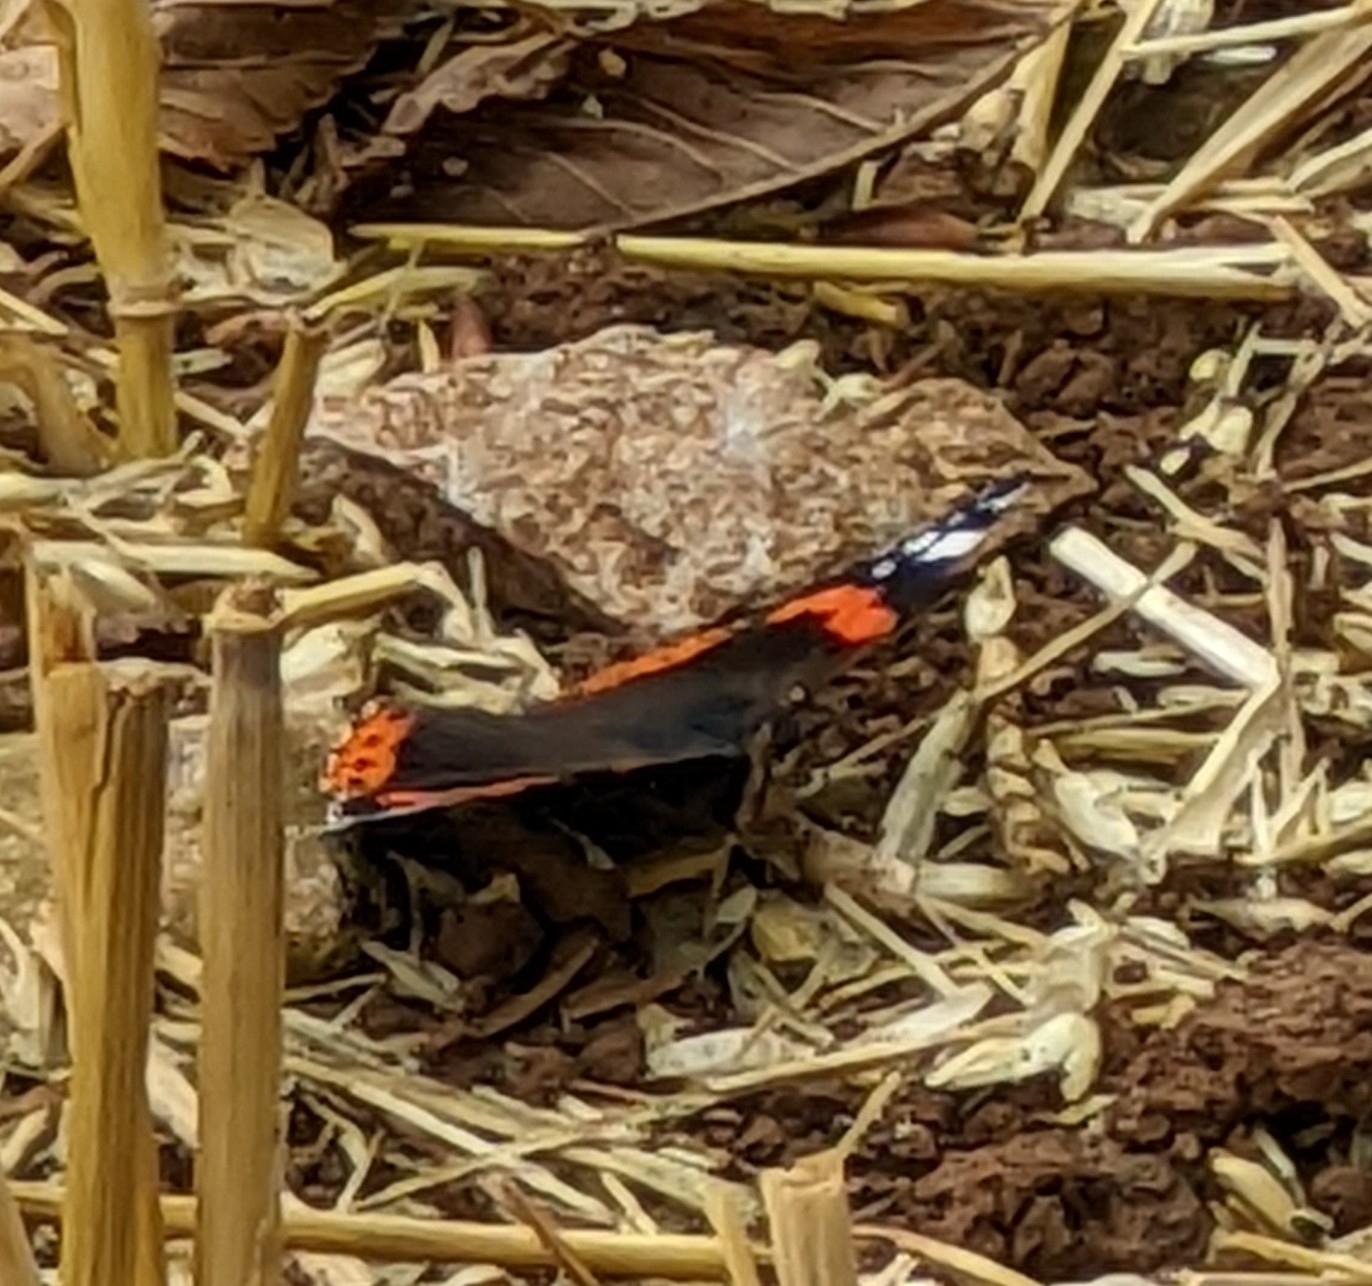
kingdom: Animalia
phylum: Arthropoda
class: Insecta
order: Lepidoptera
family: Nymphalidae
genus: Vanessa
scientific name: Vanessa atalanta
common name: Red admiral
